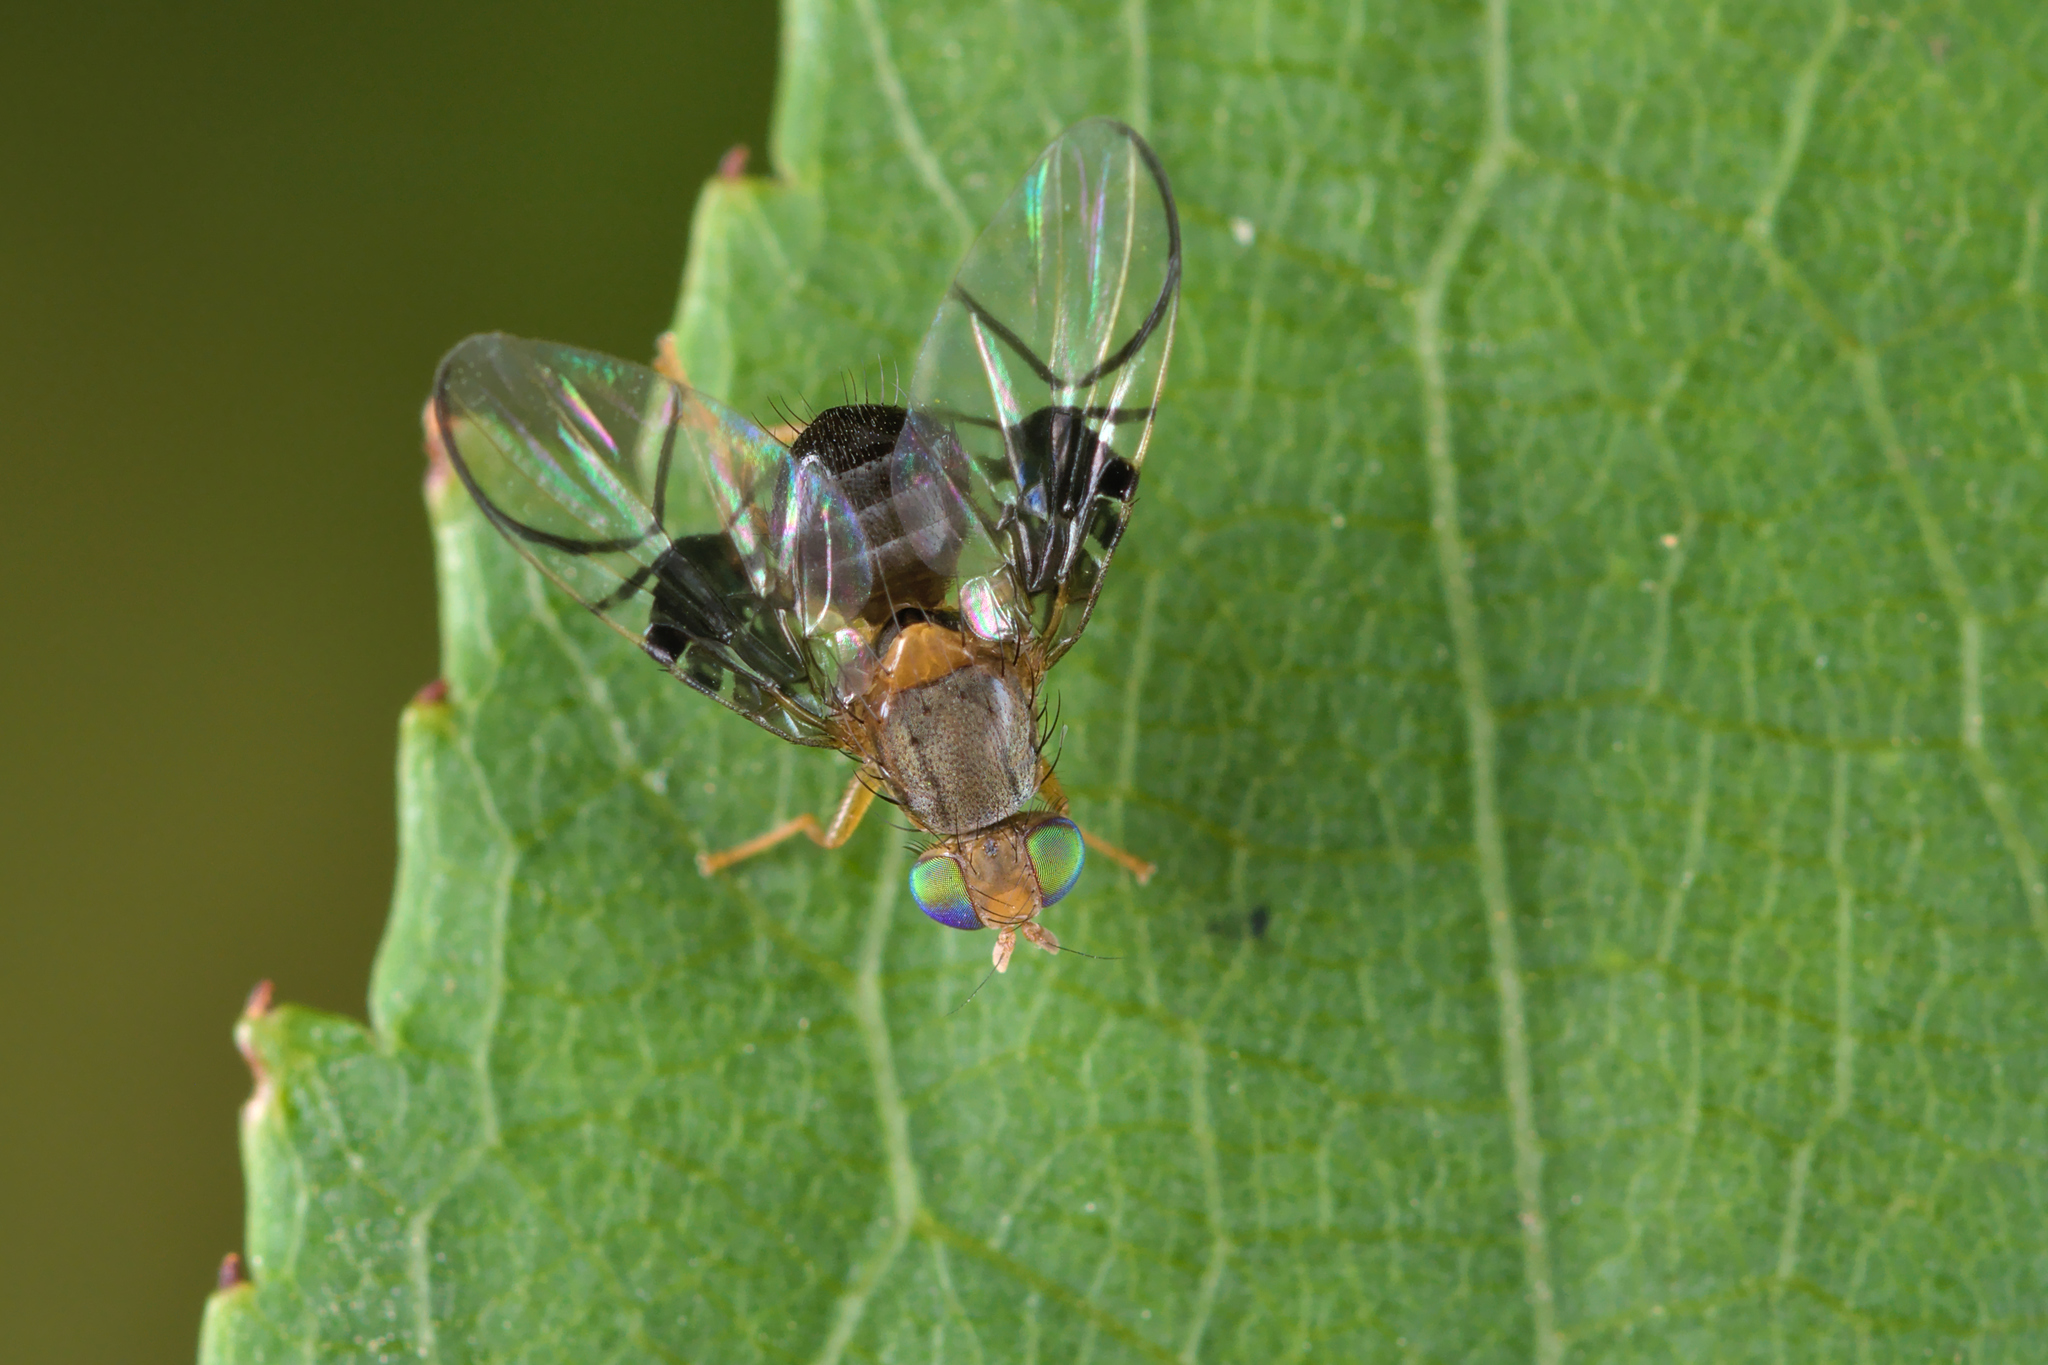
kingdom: Animalia
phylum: Arthropoda
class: Insecta
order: Diptera
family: Tephritidae
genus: Anomoia
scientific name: Anomoia purmunda
